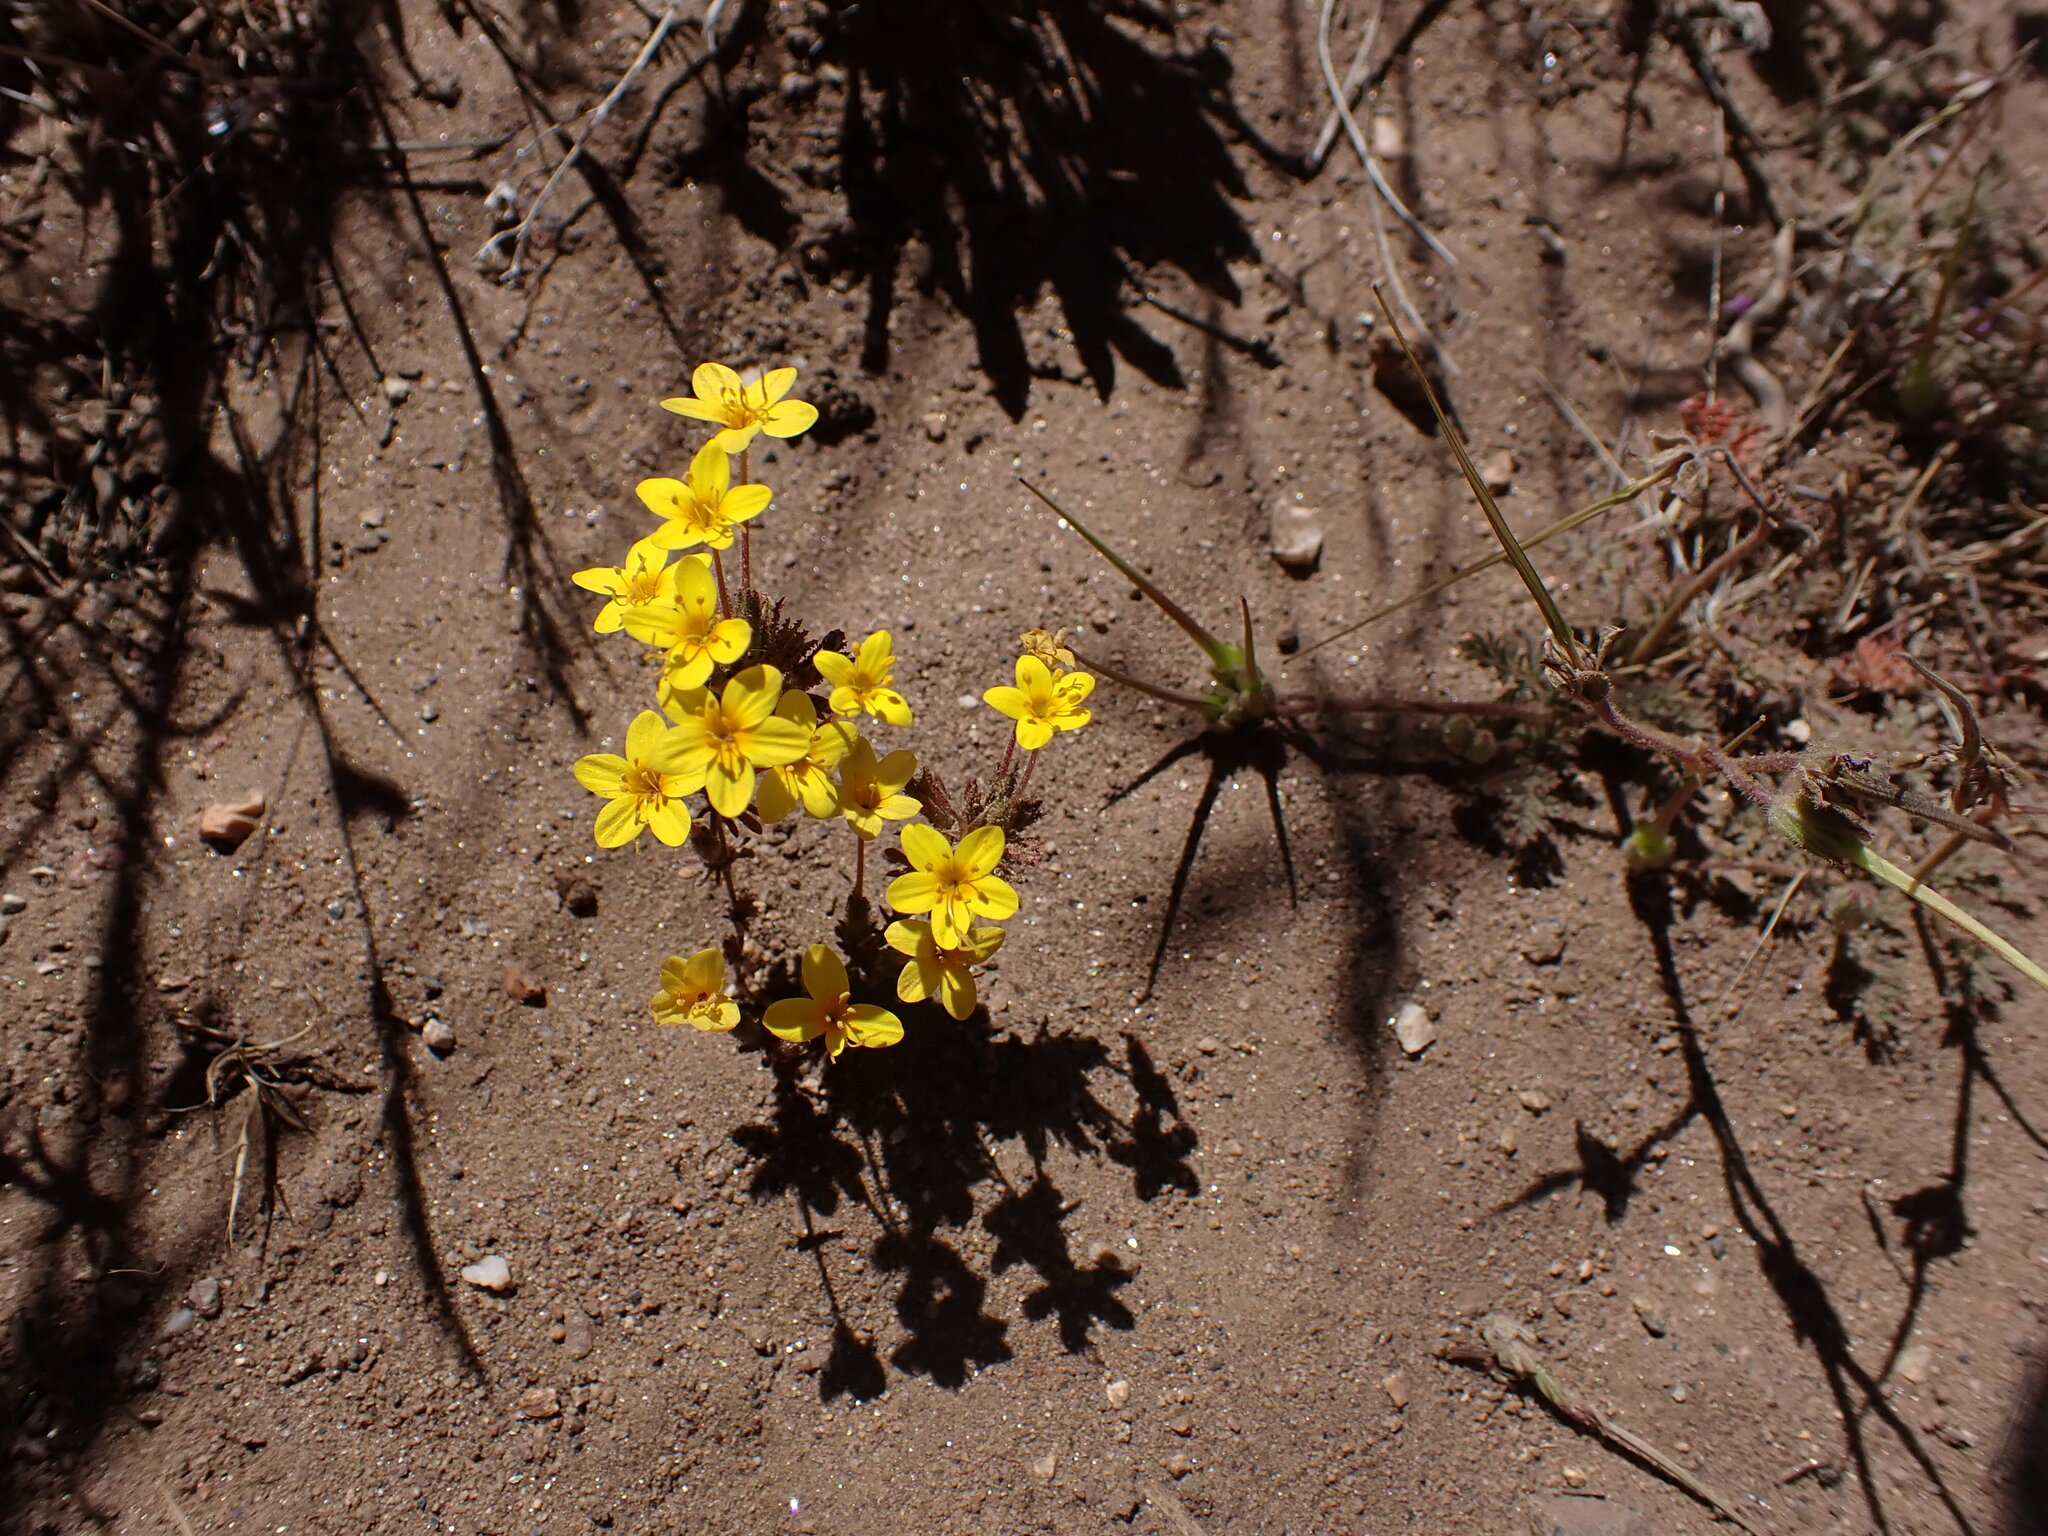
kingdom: Plantae
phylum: Tracheophyta
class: Magnoliopsida
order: Ericales
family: Polemoniaceae
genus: Leptosiphon
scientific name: Leptosiphon parviflorus
